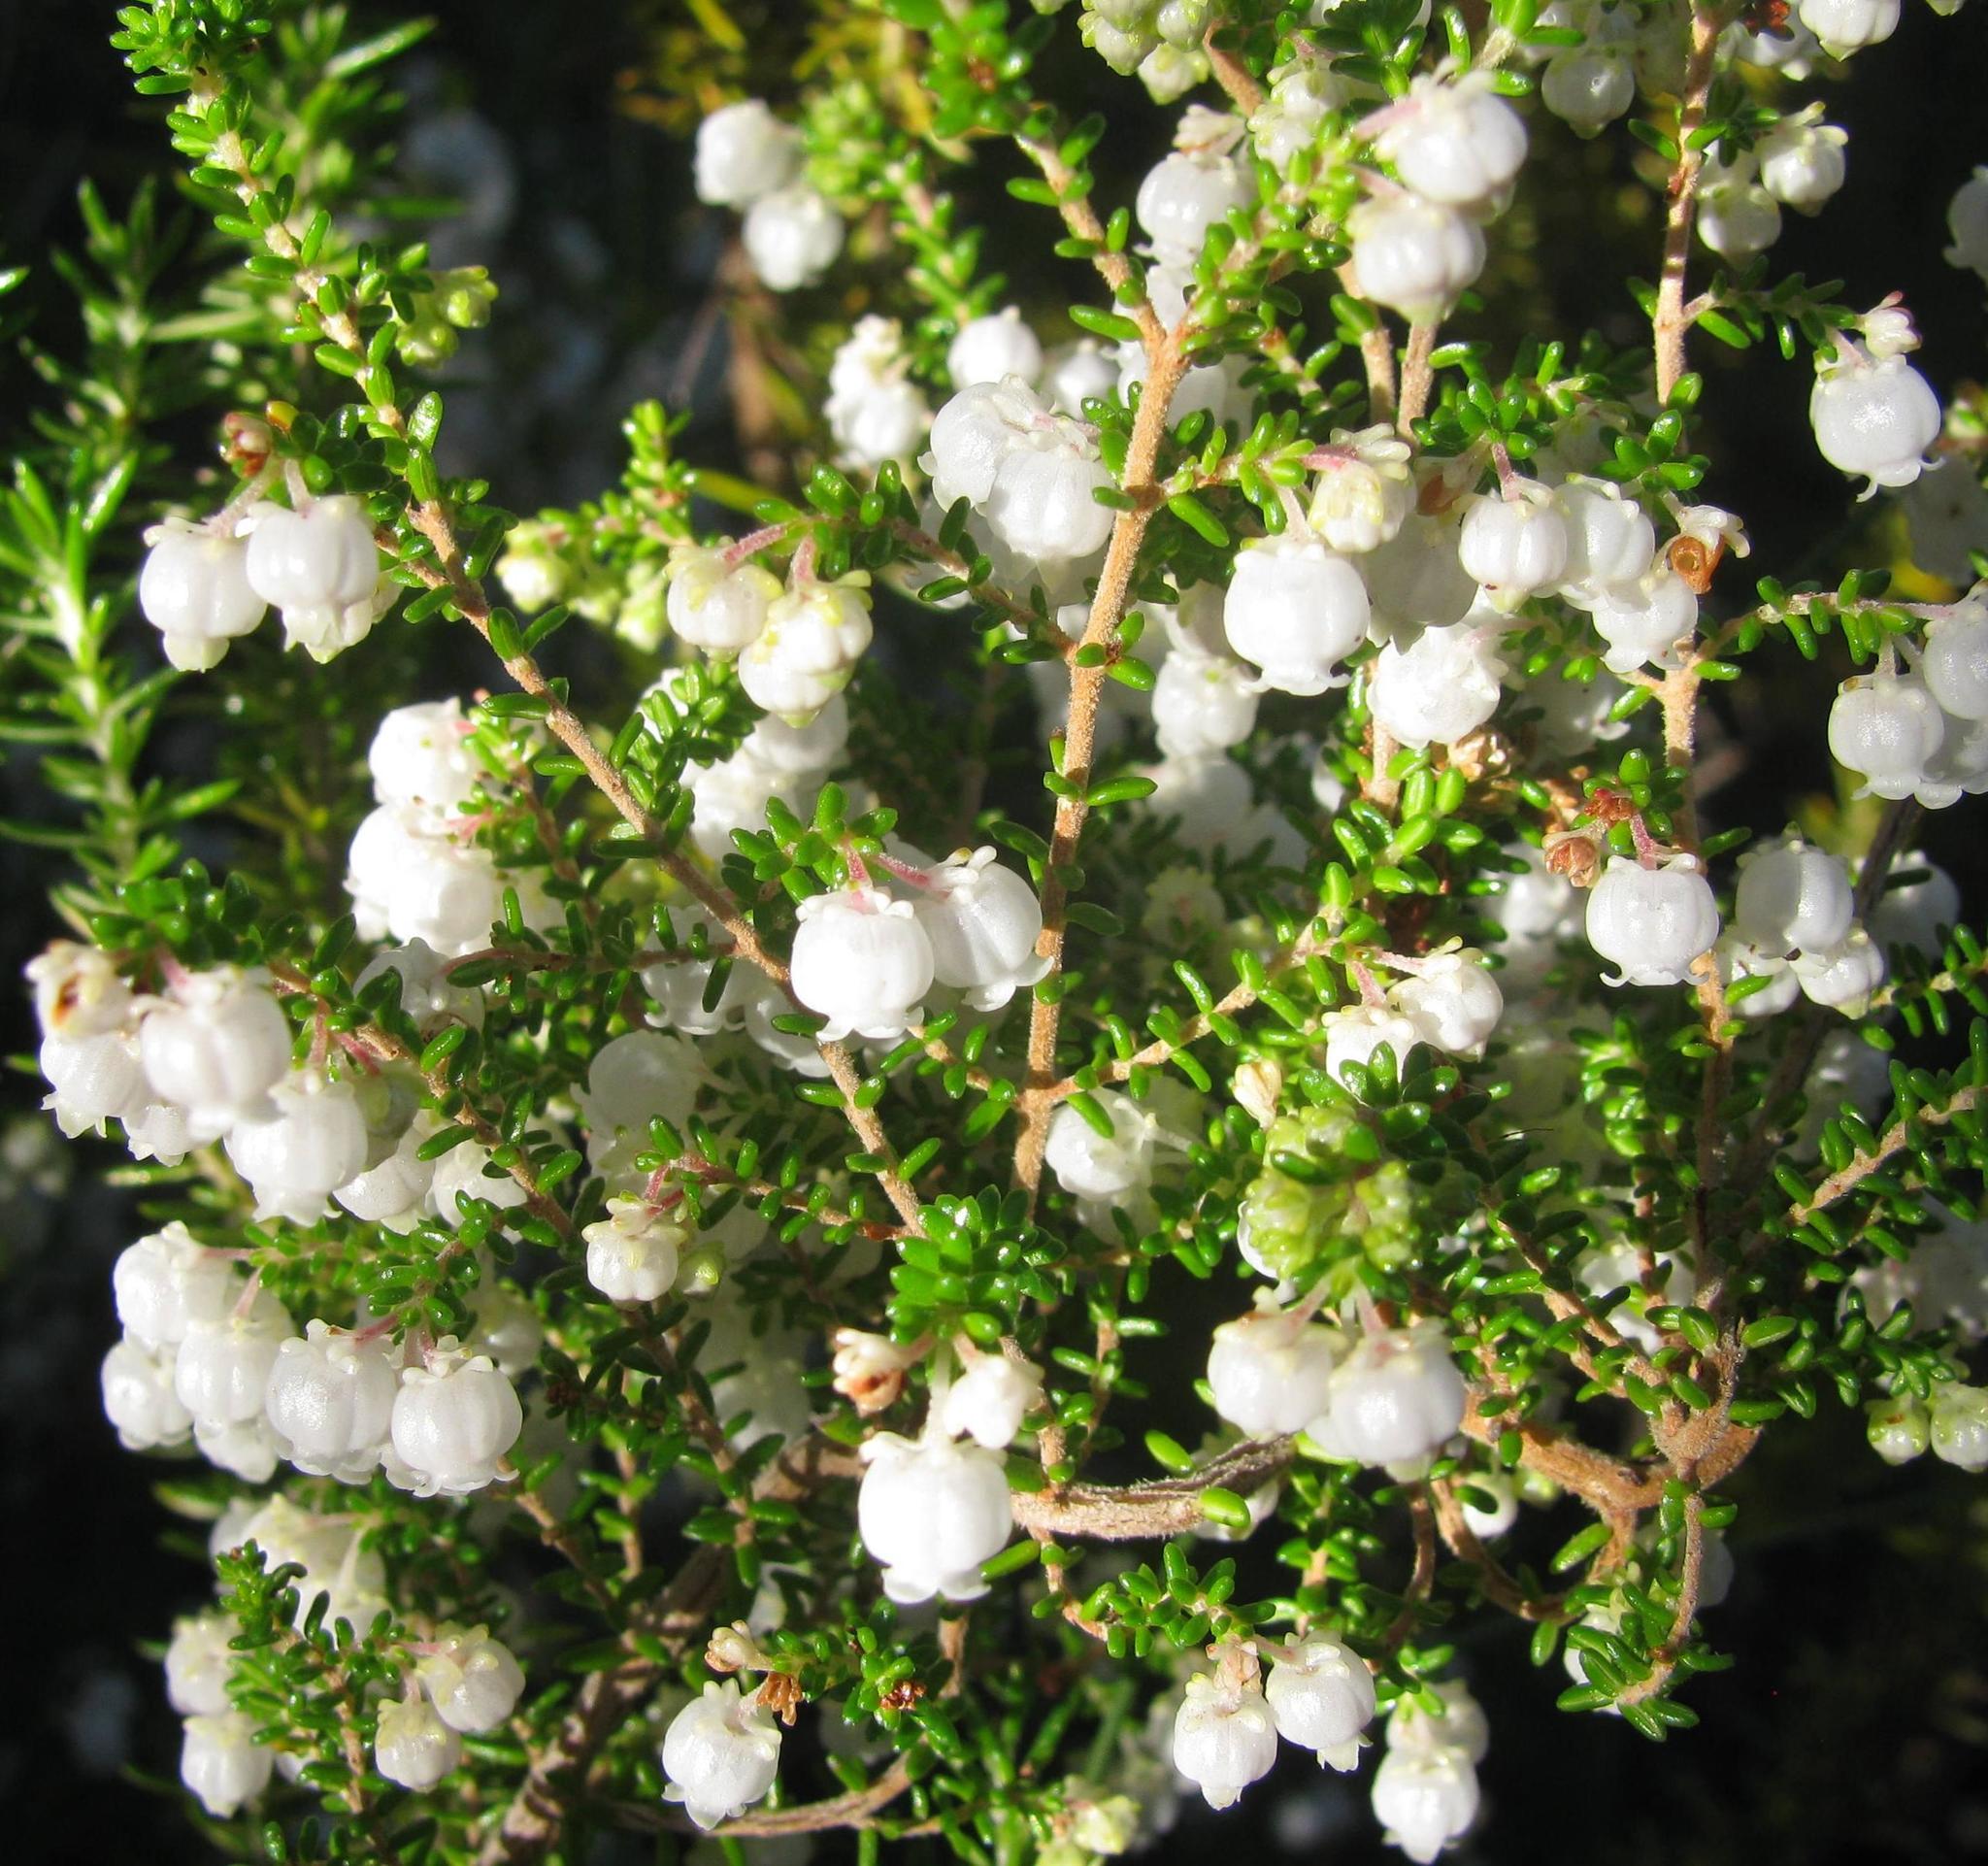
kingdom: Plantae
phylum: Tracheophyta
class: Magnoliopsida
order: Ericales
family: Ericaceae
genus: Erica
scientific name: Erica formosa
